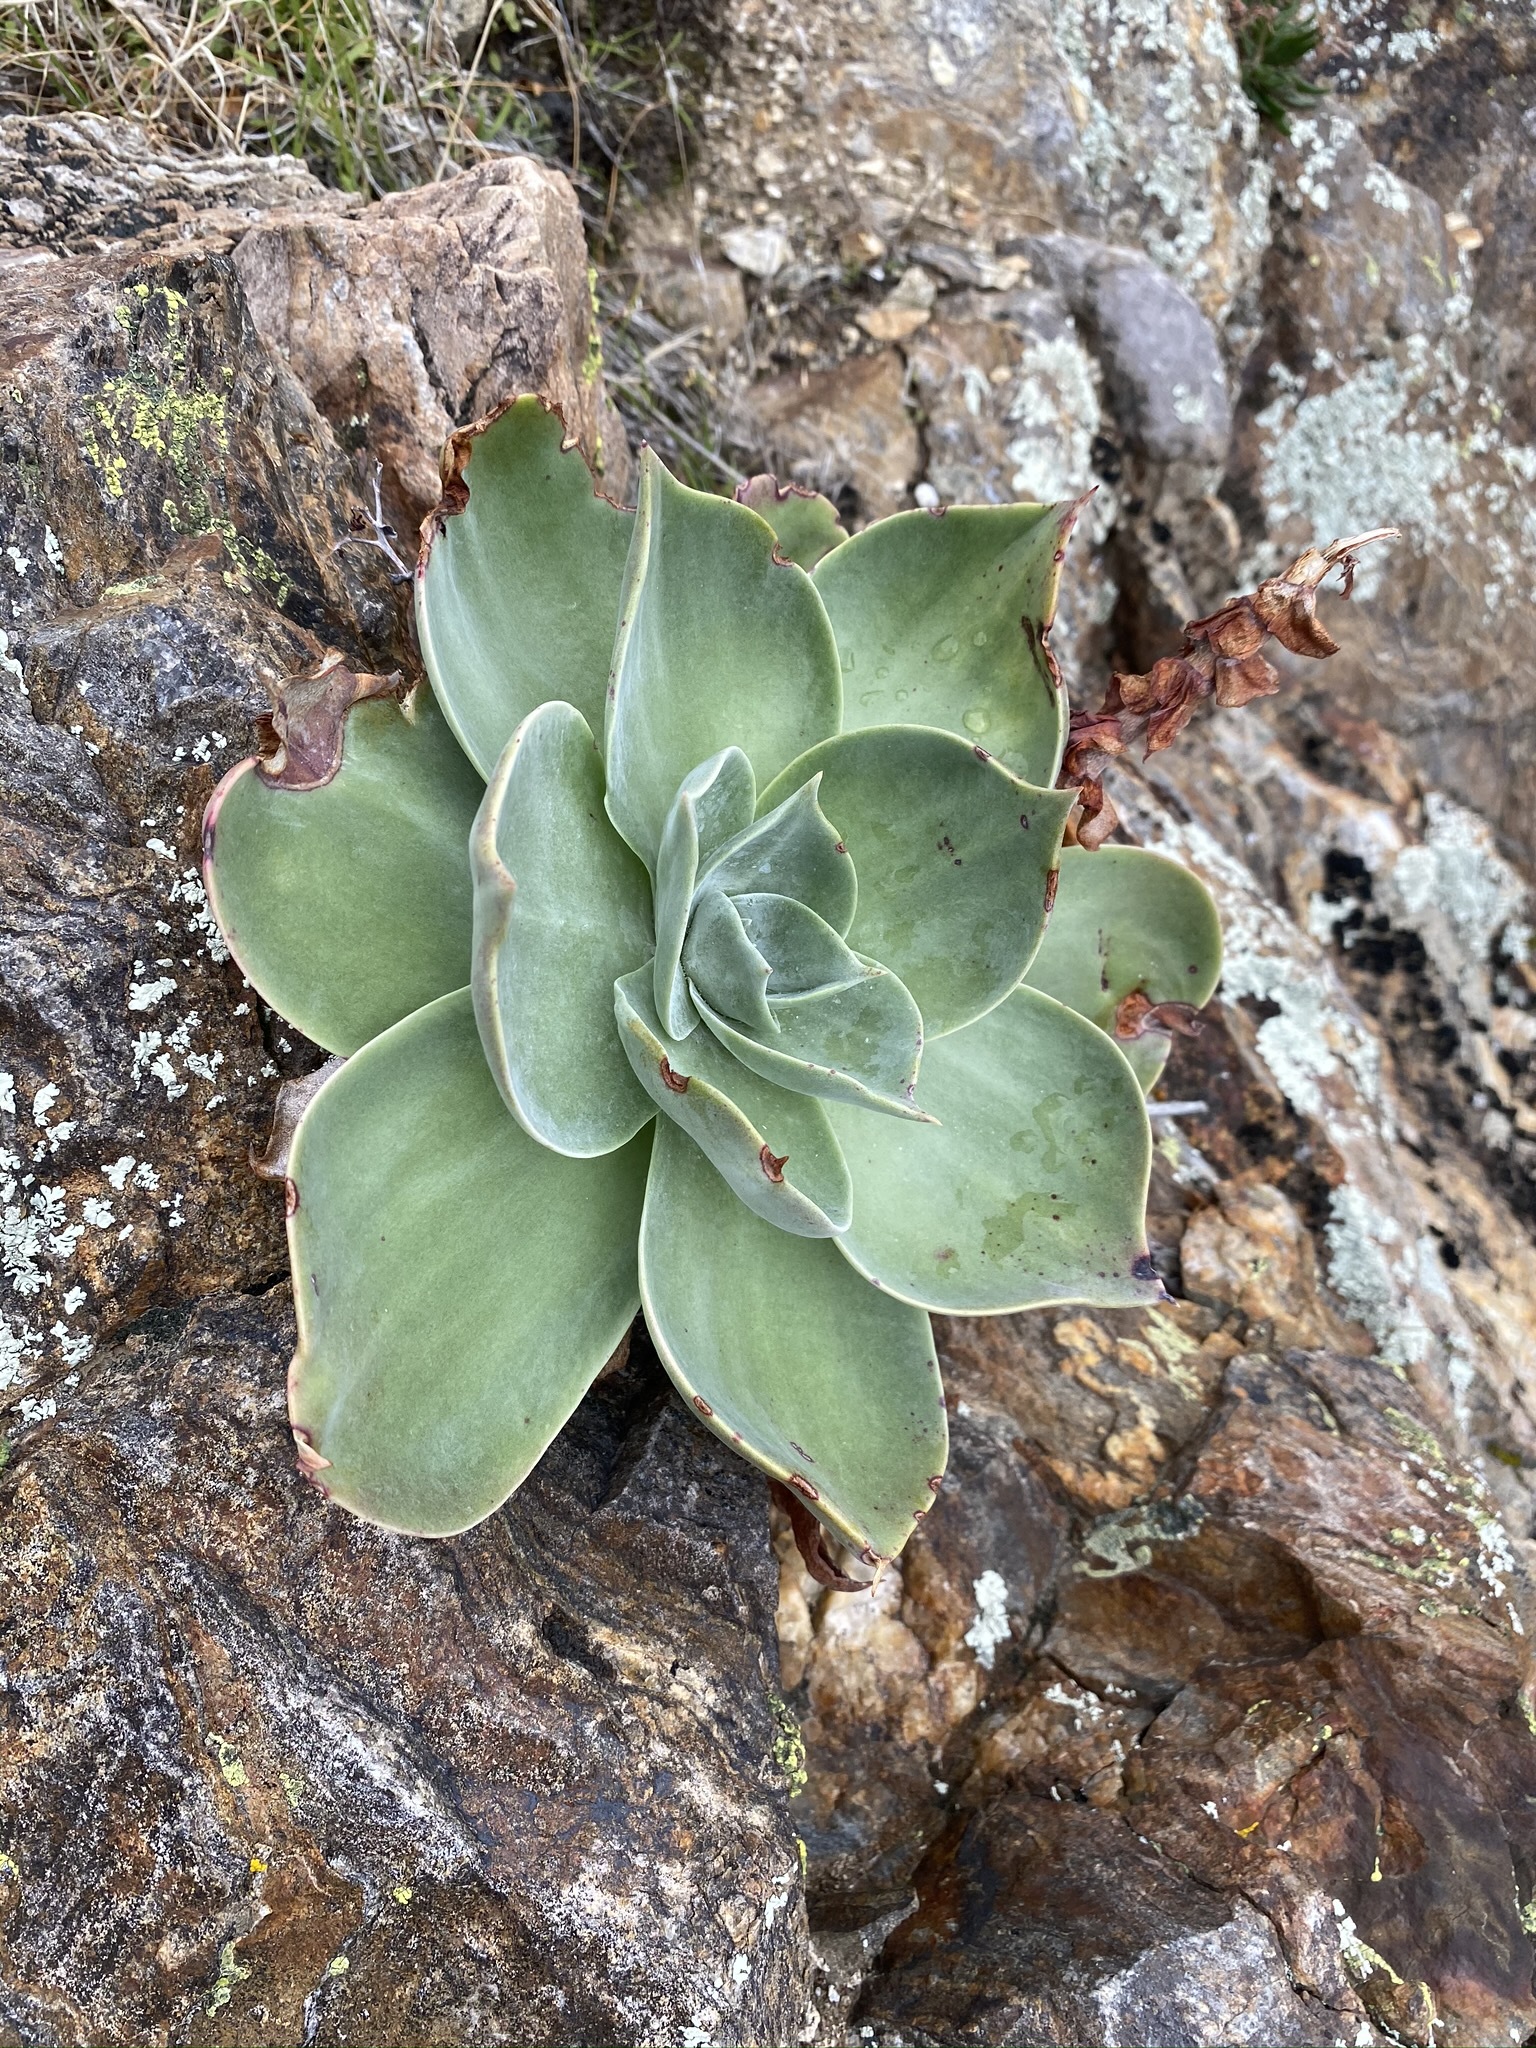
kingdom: Plantae
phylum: Tracheophyta
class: Magnoliopsida
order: Saxifragales
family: Crassulaceae
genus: Dudleya
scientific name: Dudleya arizonica
